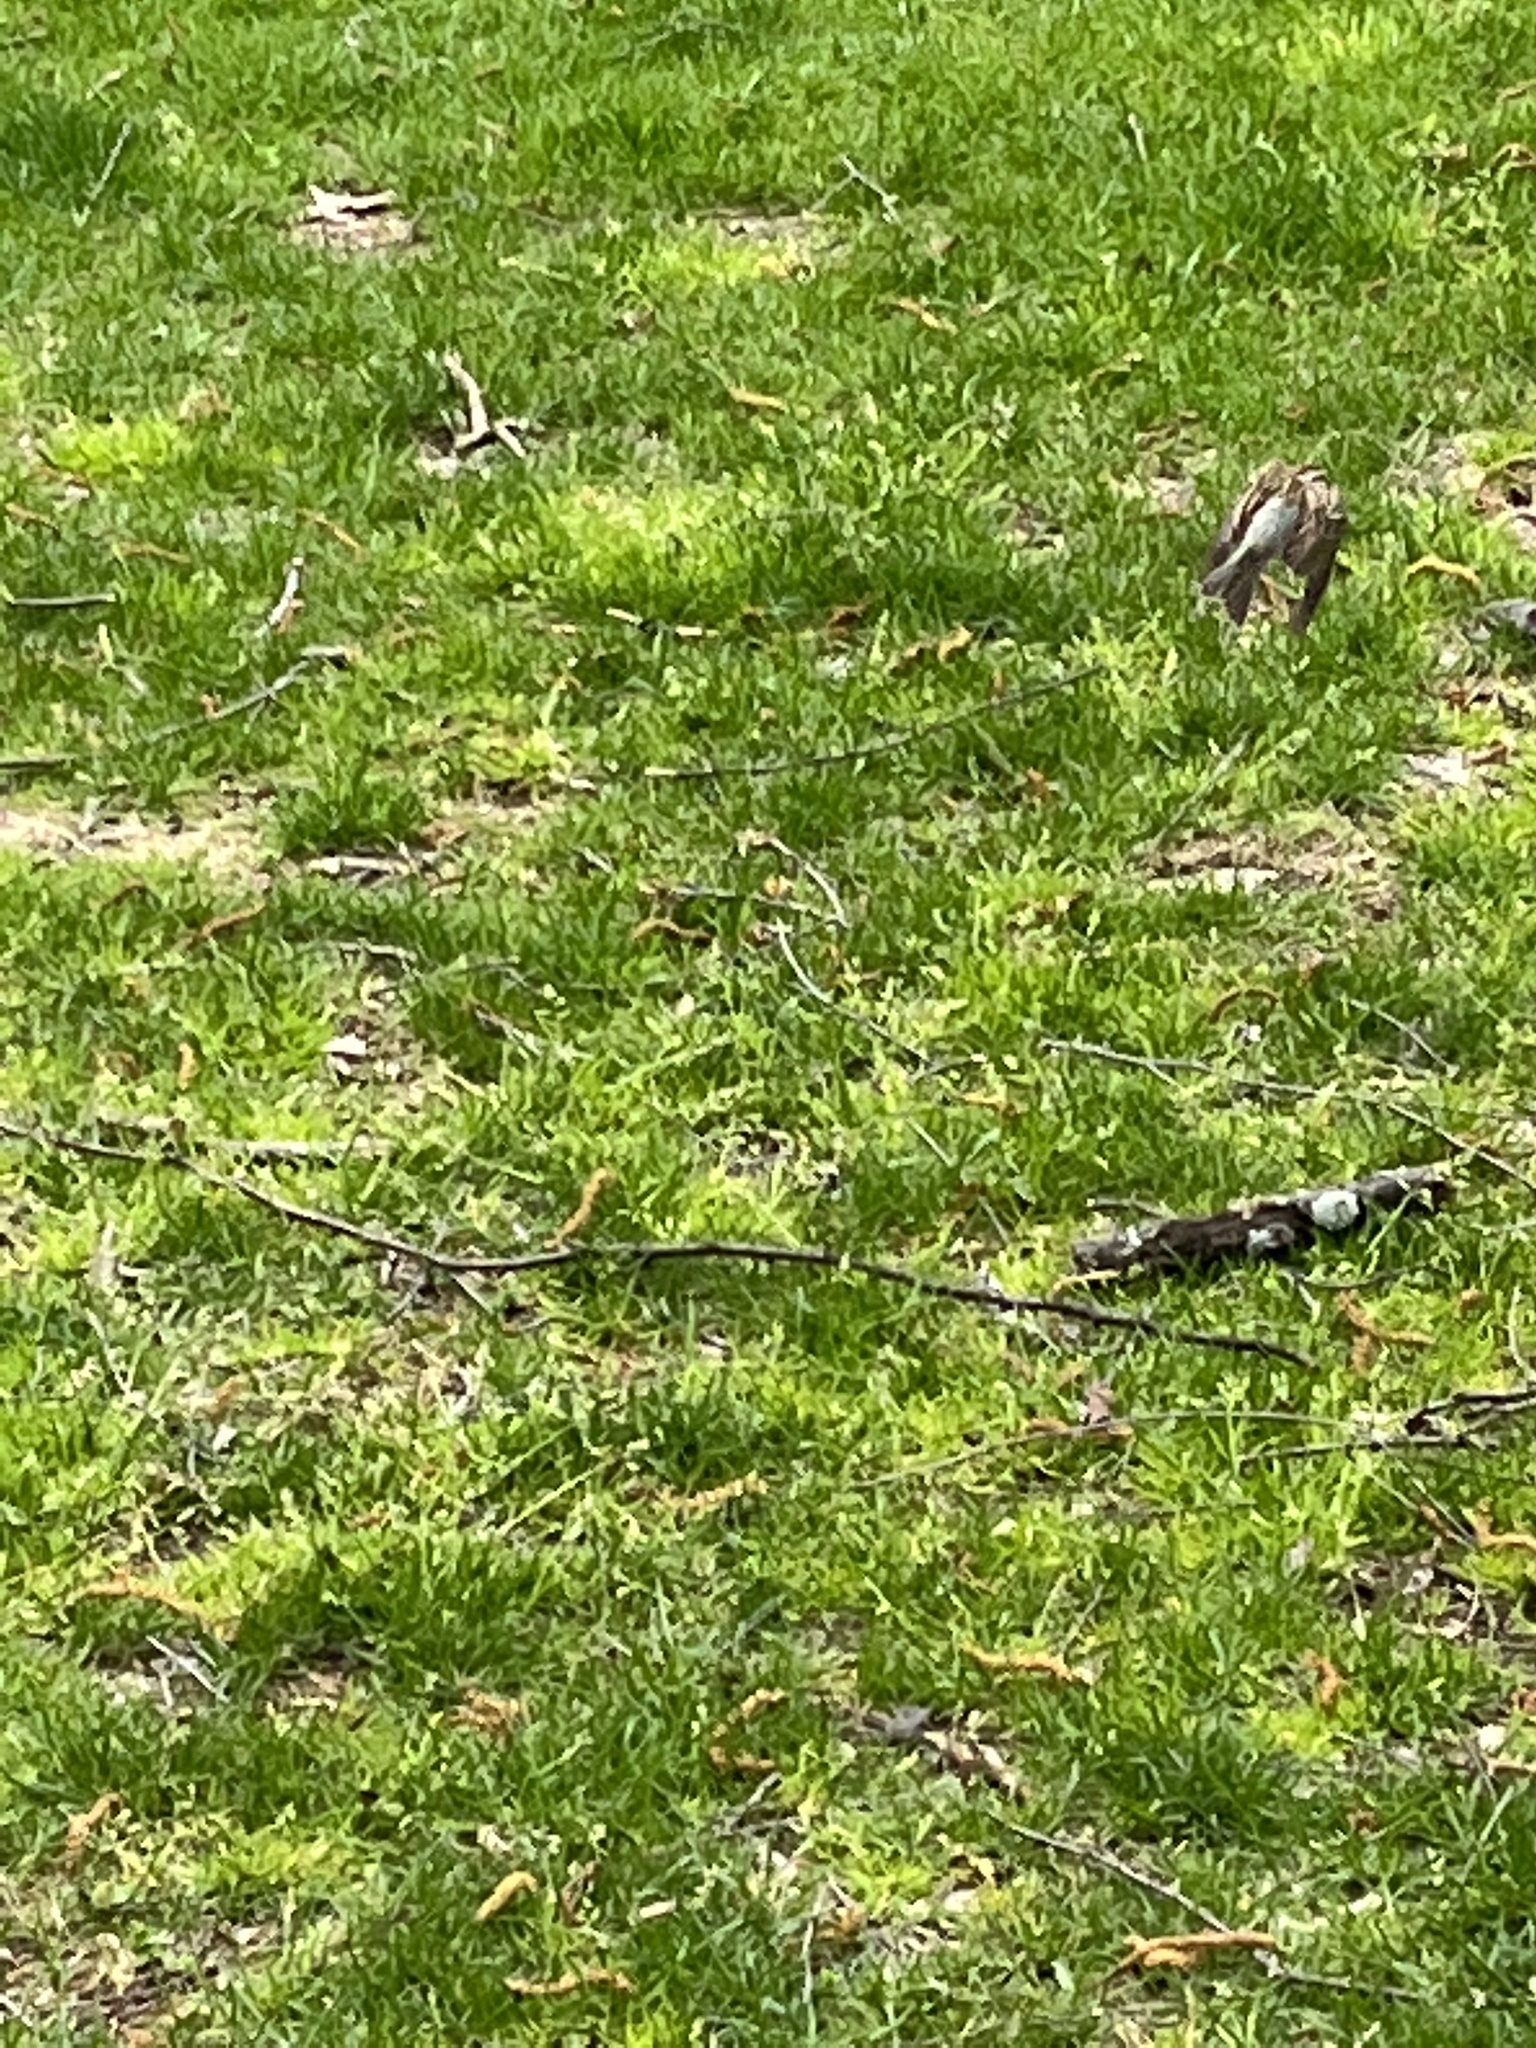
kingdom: Animalia
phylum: Chordata
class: Aves
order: Passeriformes
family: Passerellidae
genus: Spizella
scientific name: Spizella passerina
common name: Chipping sparrow
